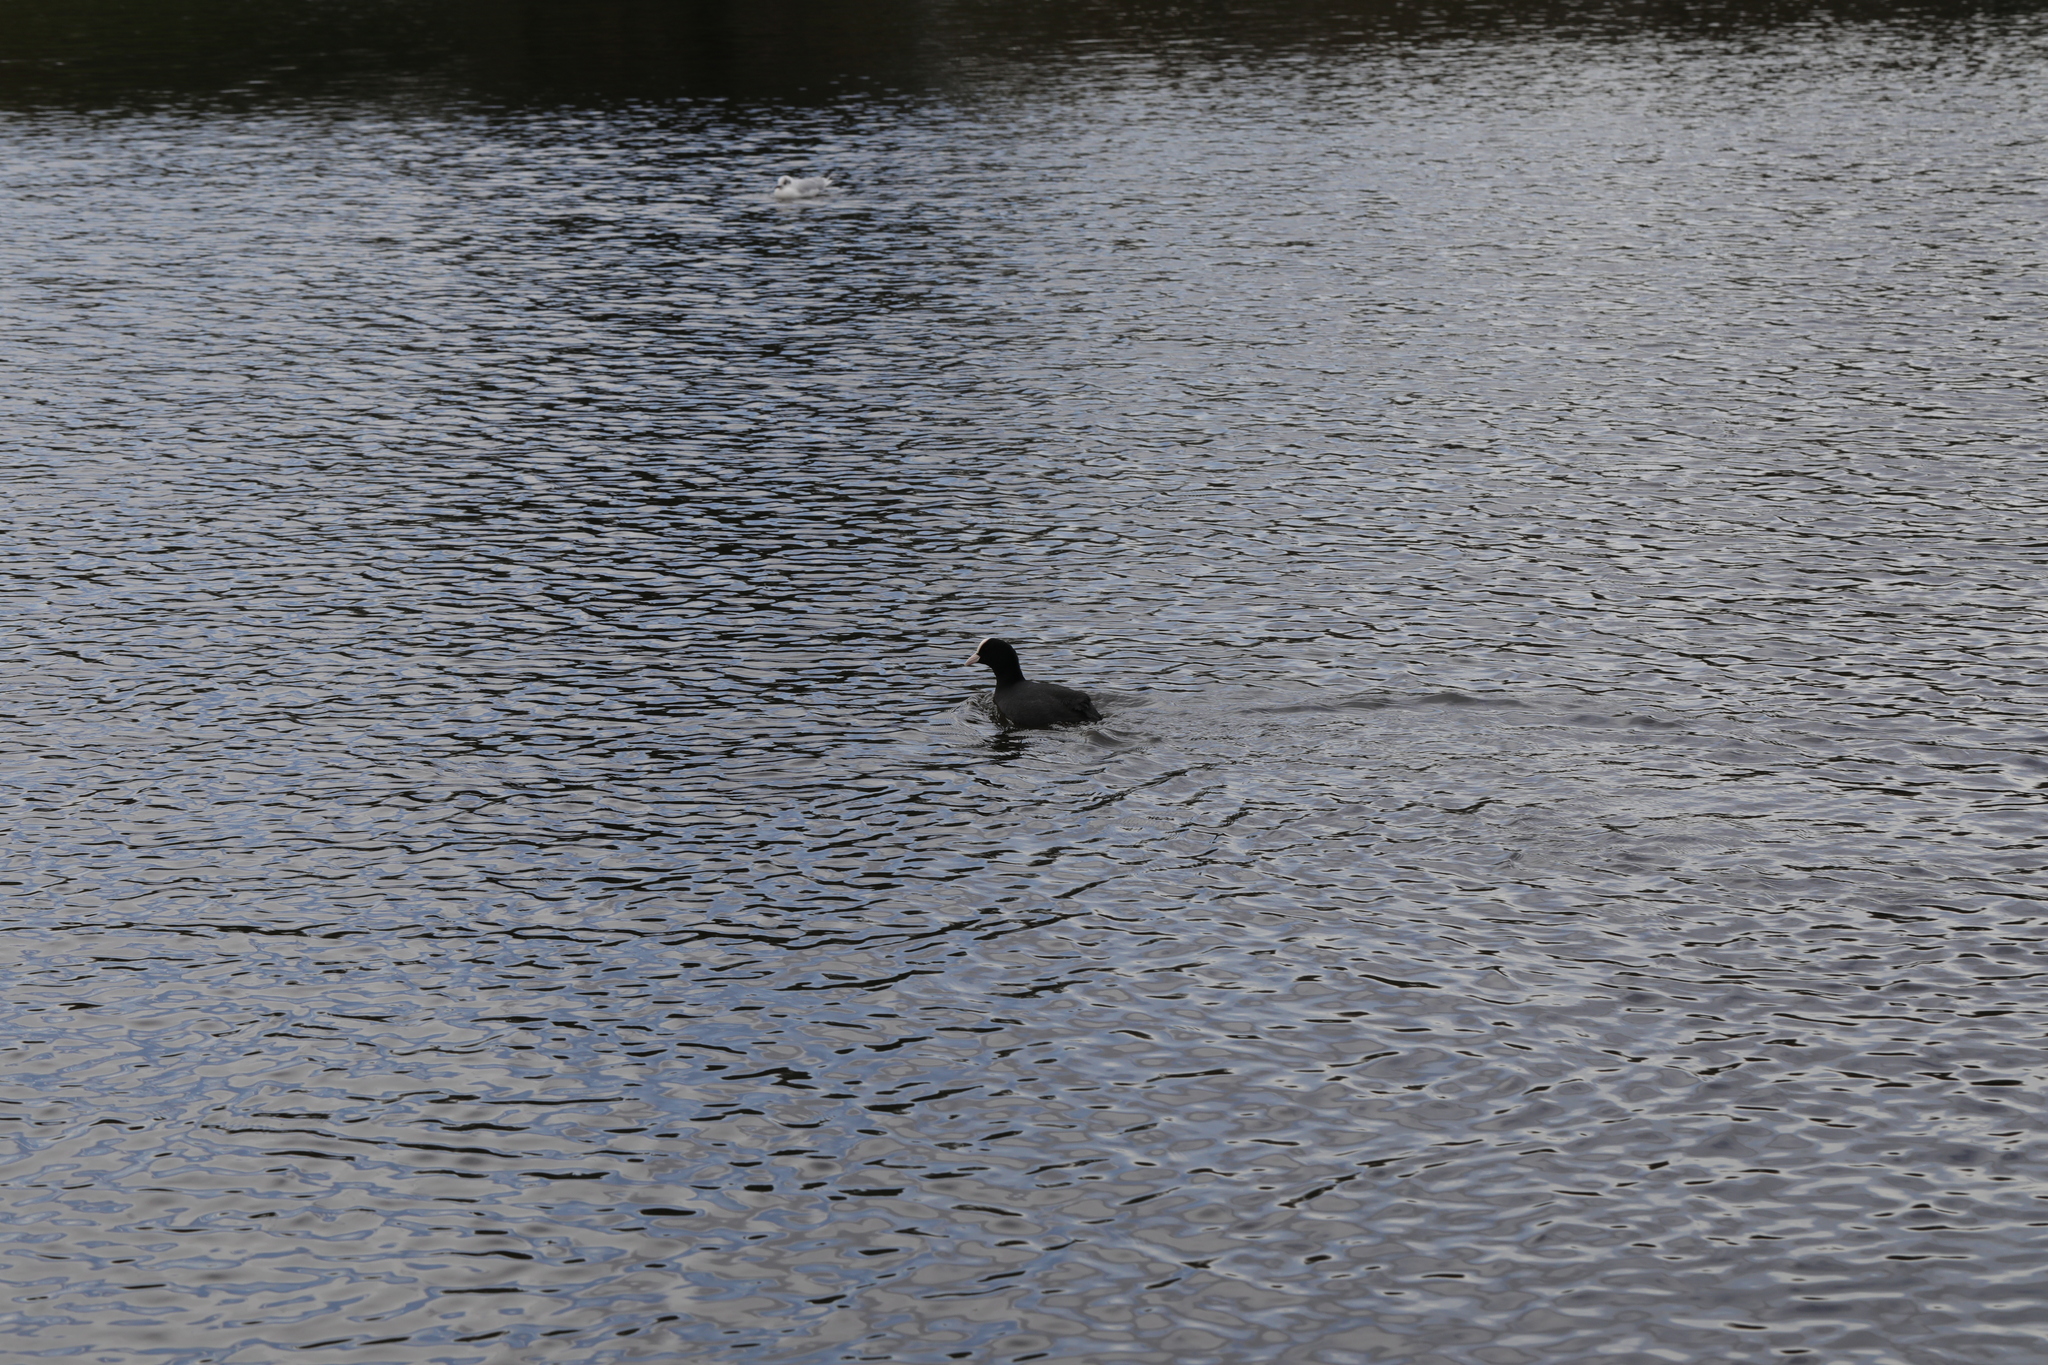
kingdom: Animalia
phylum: Chordata
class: Aves
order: Gruiformes
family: Rallidae
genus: Fulica
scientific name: Fulica atra
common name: Eurasian coot
